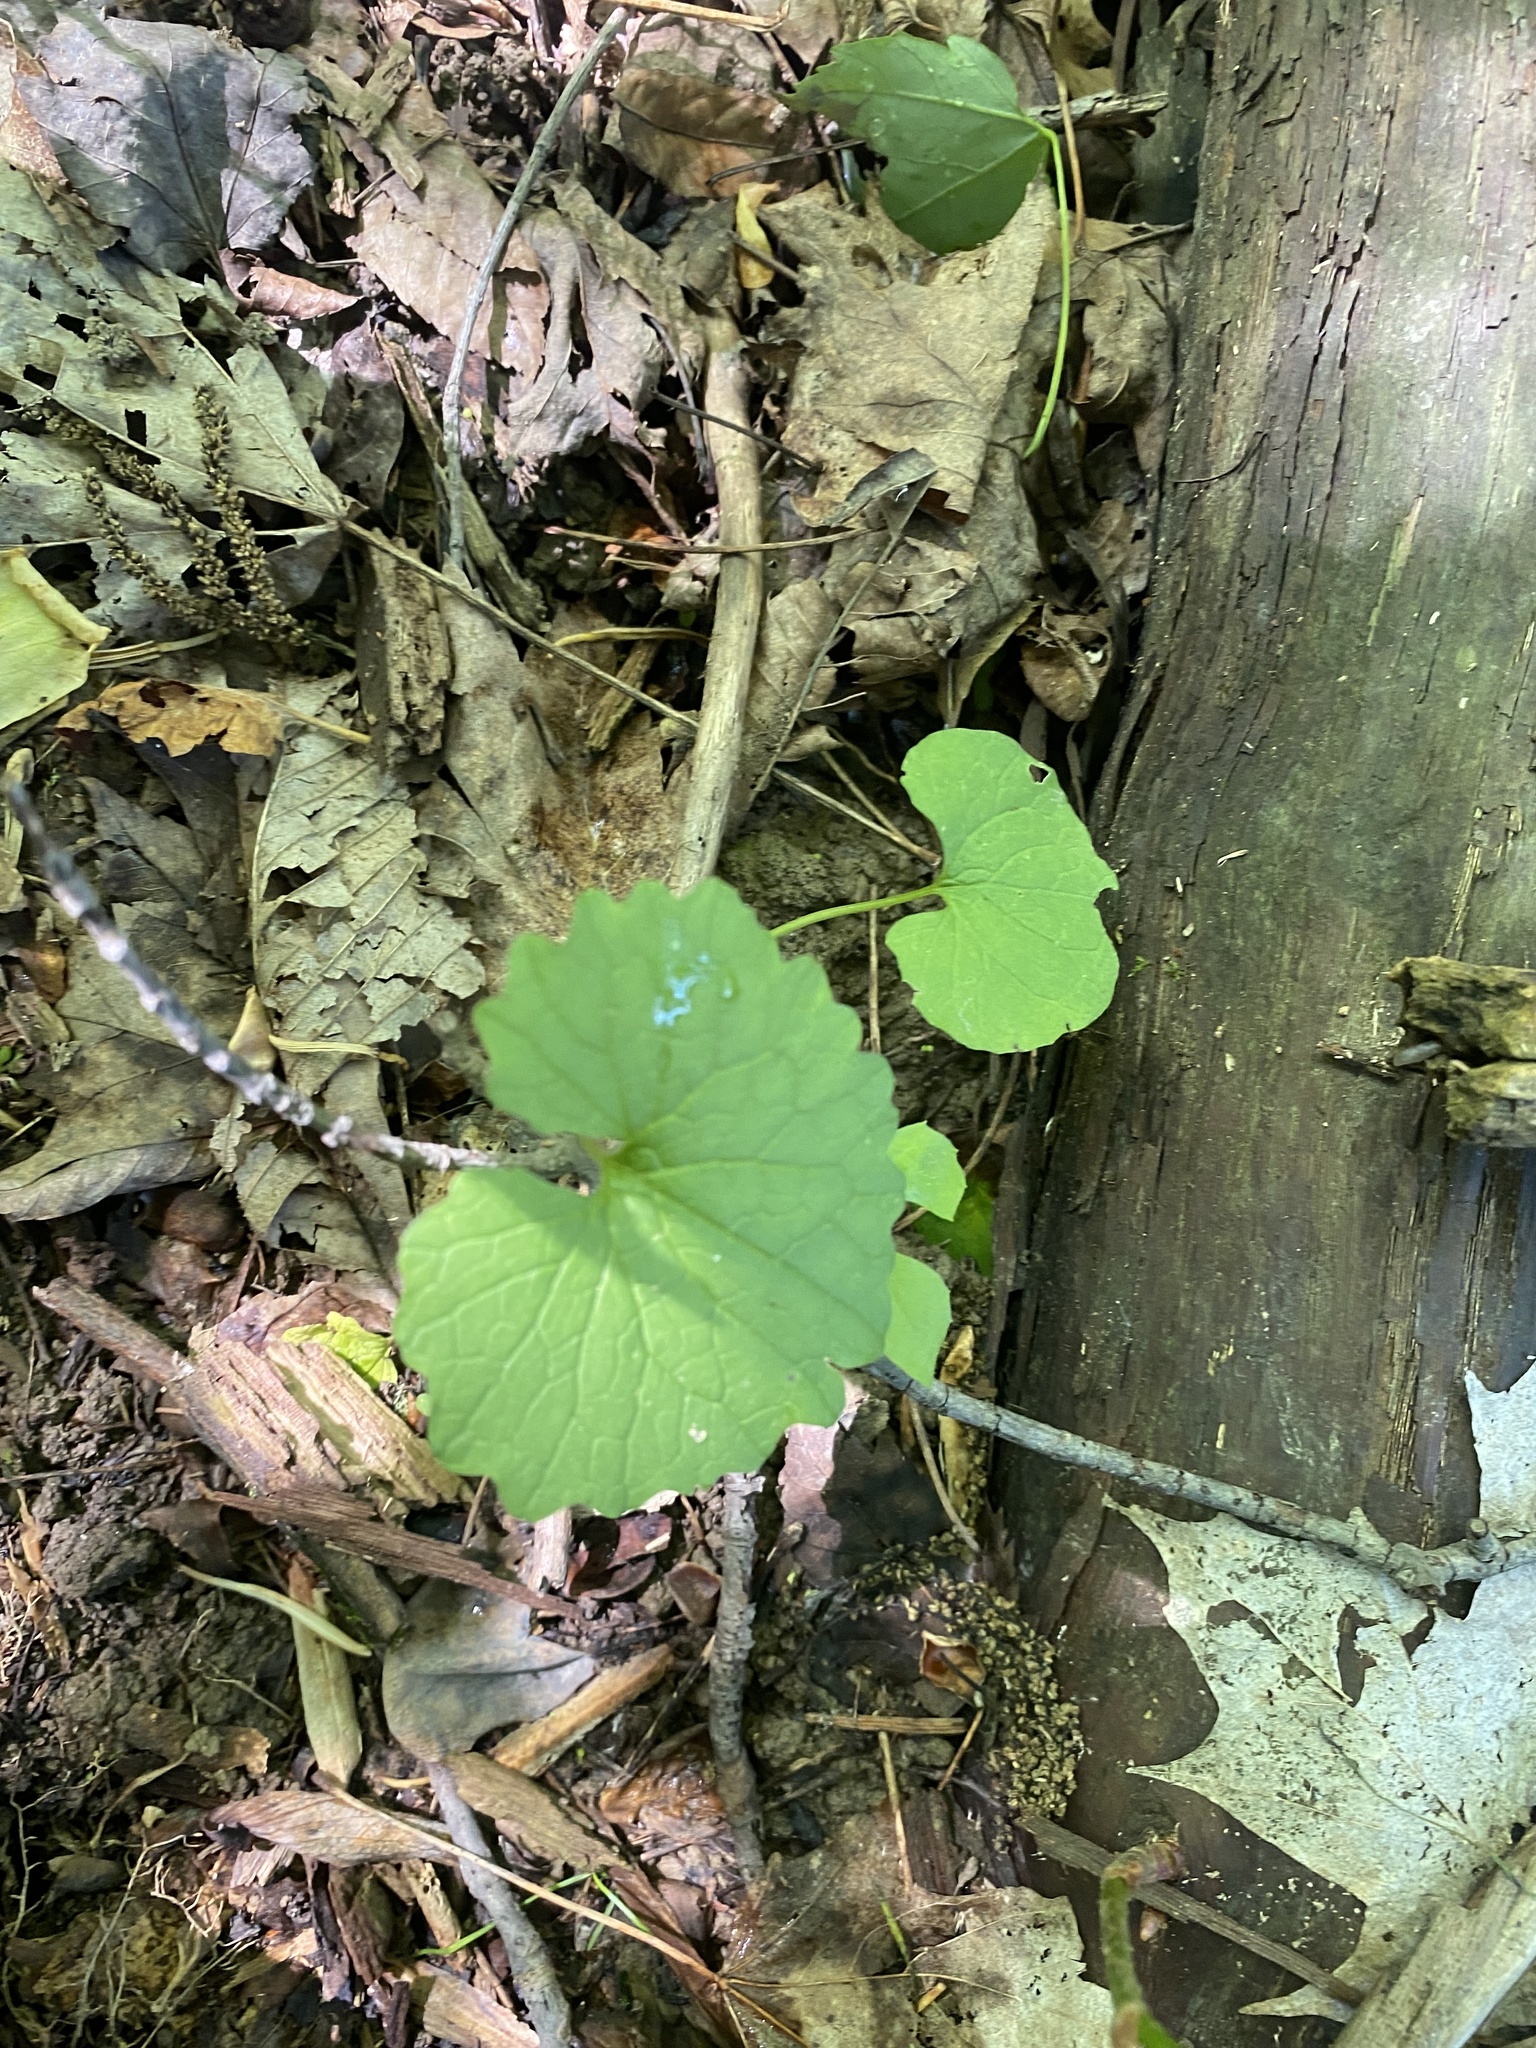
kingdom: Plantae
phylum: Tracheophyta
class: Magnoliopsida
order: Brassicales
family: Brassicaceae
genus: Alliaria
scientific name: Alliaria petiolata
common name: Garlic mustard
